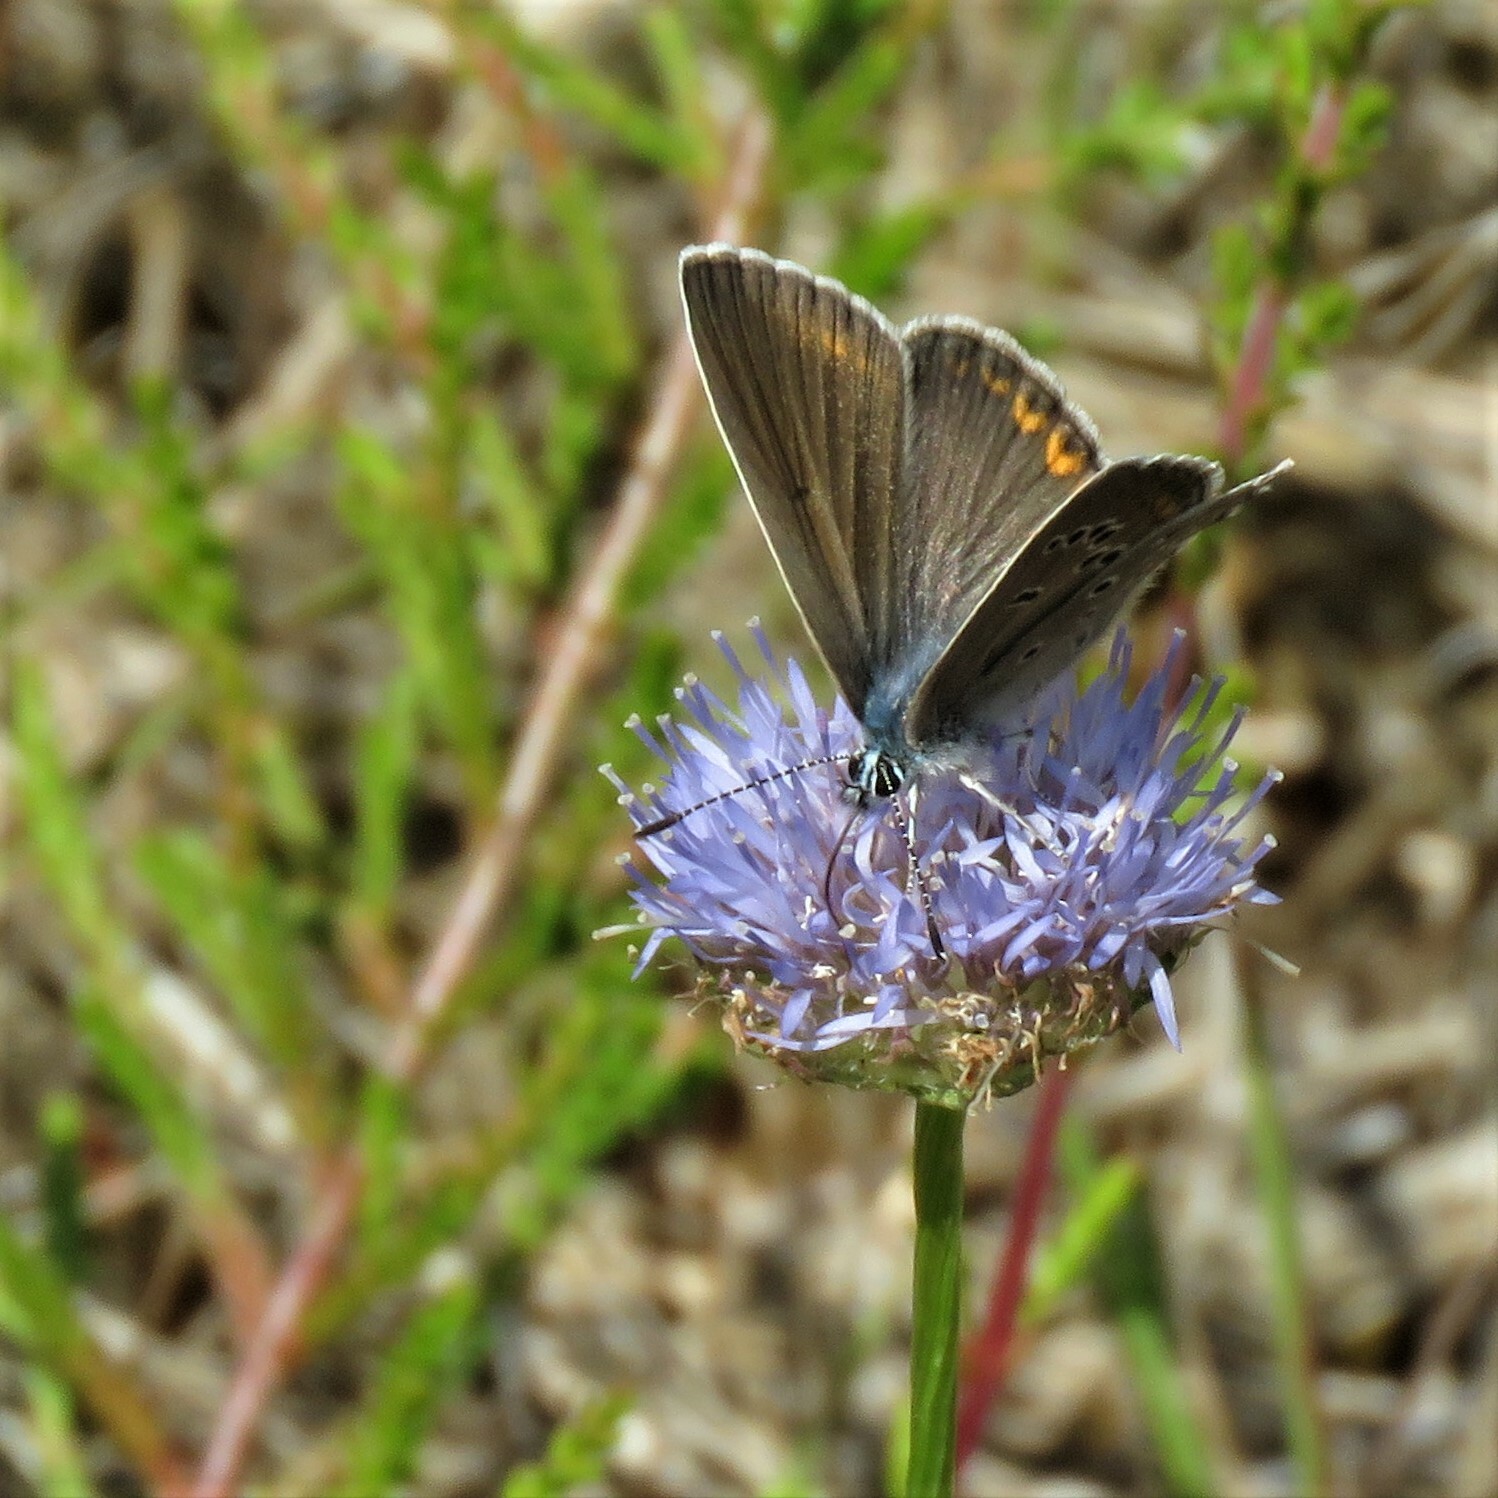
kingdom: Animalia
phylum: Arthropoda
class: Insecta
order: Lepidoptera
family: Lycaenidae
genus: Plebejus
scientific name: Plebejus amanda
